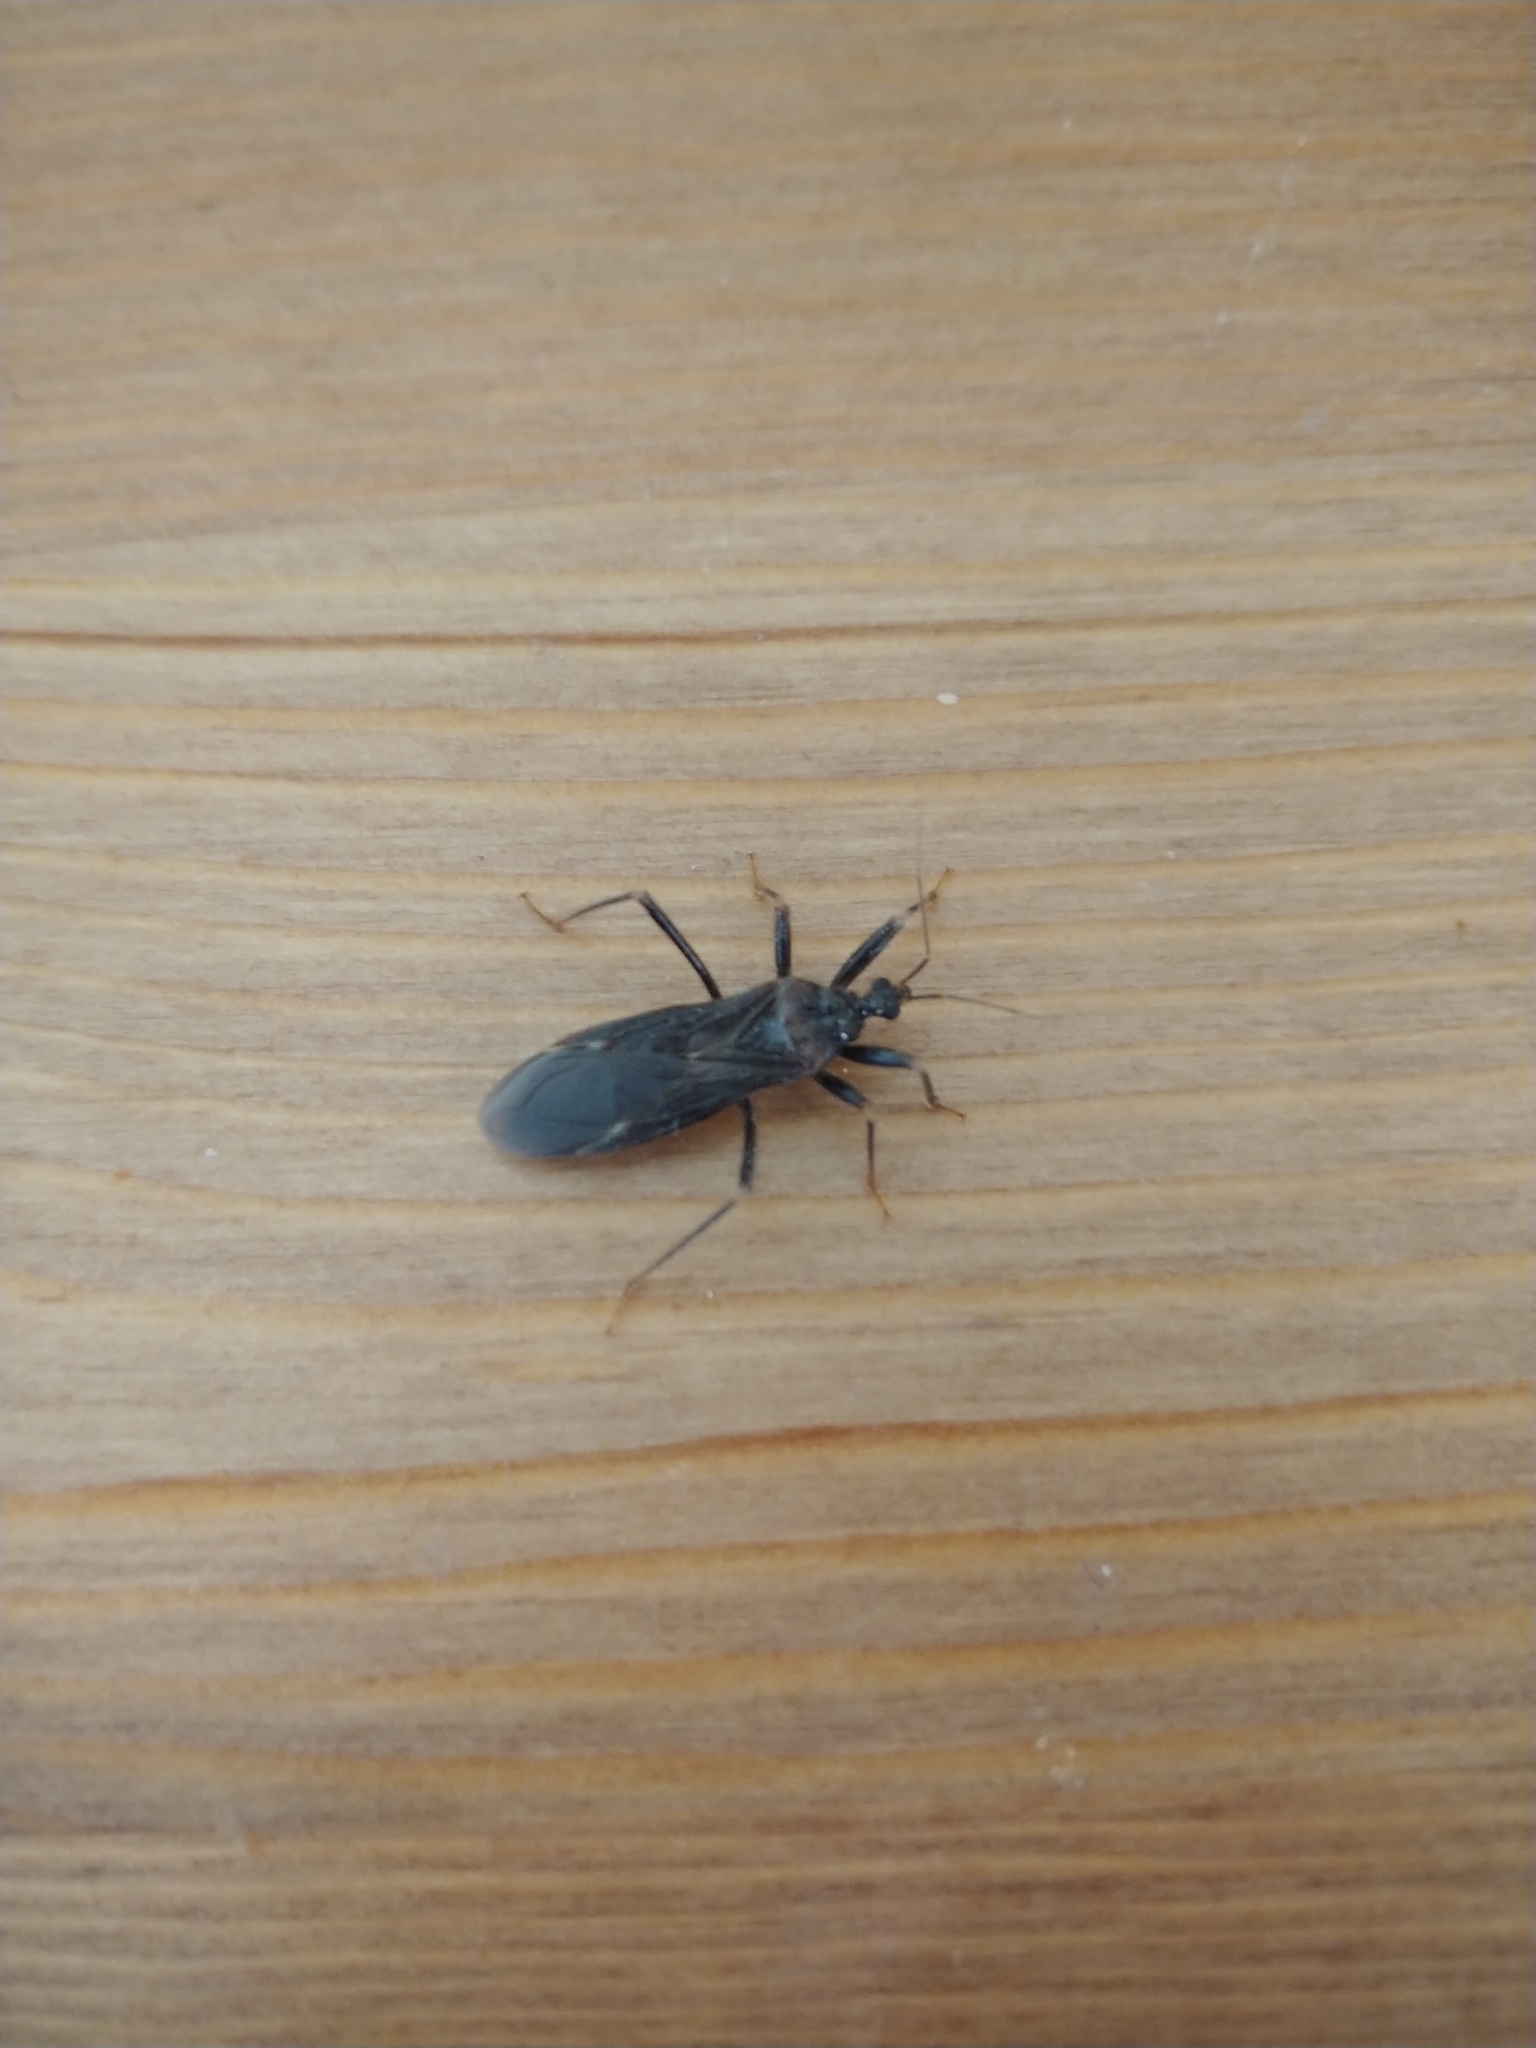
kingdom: Animalia
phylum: Arthropoda
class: Insecta
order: Hemiptera
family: Reduviidae
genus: Reduvius
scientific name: Reduvius personatus
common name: Masked hunter
